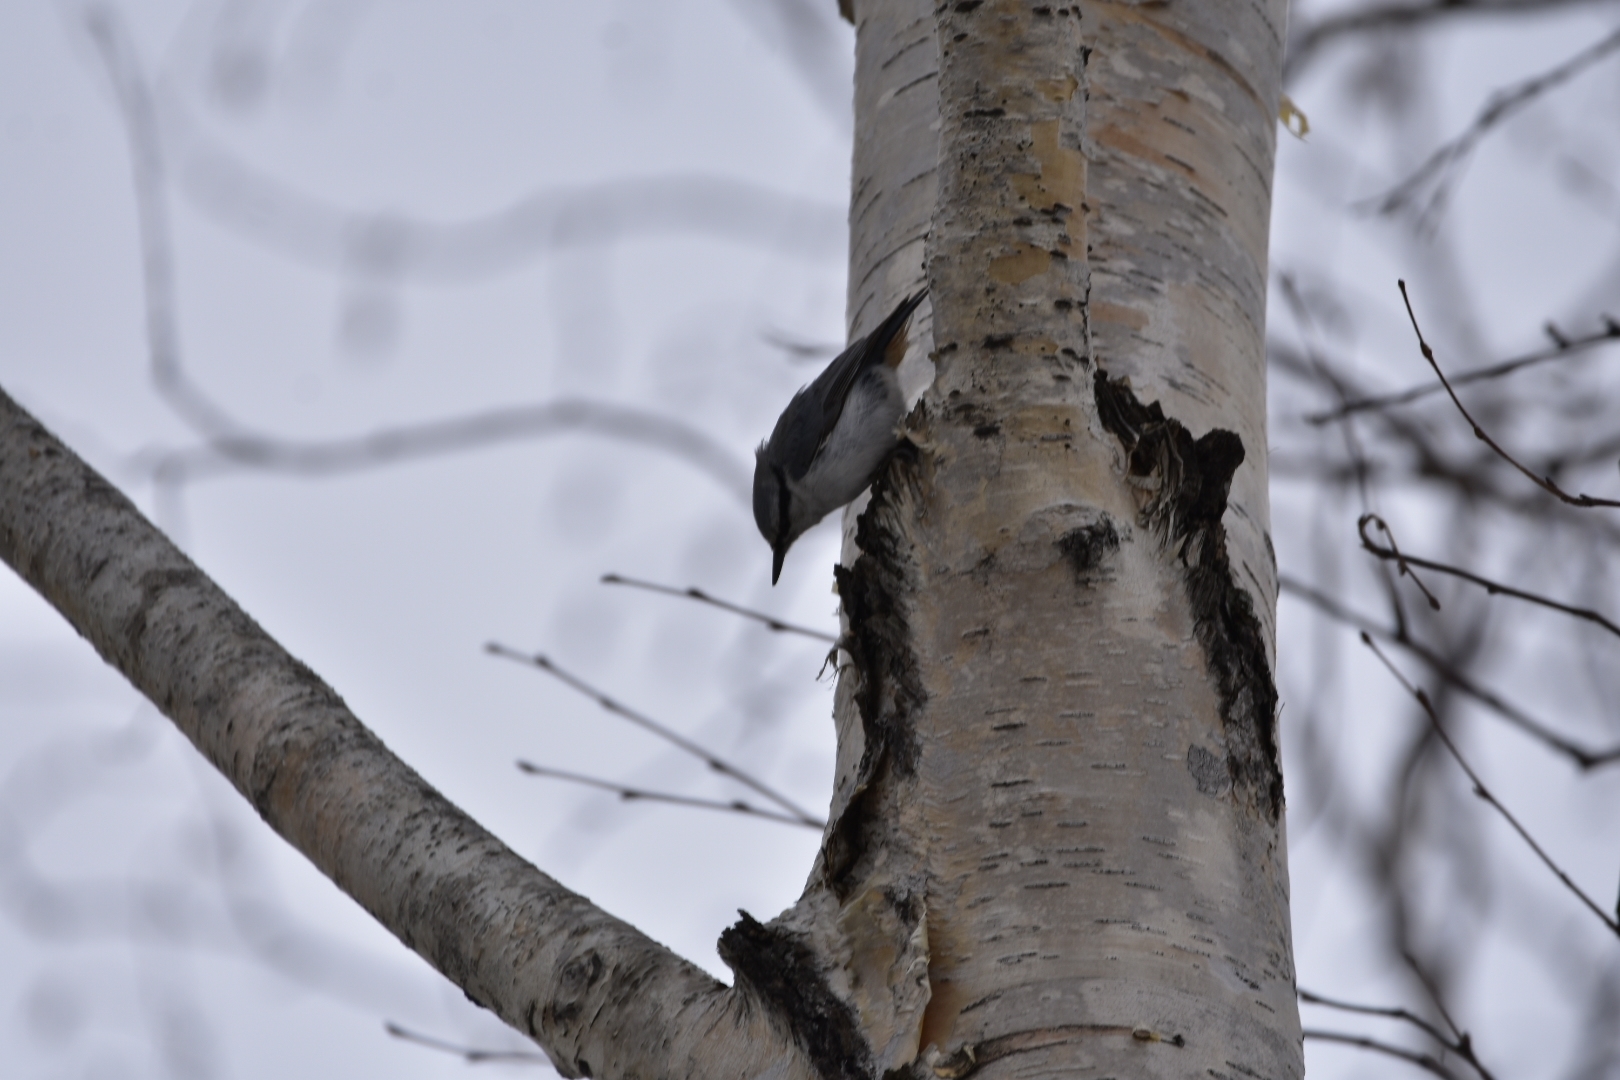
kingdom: Animalia
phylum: Chordata
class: Aves
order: Passeriformes
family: Sittidae
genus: Sitta
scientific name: Sitta europaea
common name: Eurasian nuthatch
